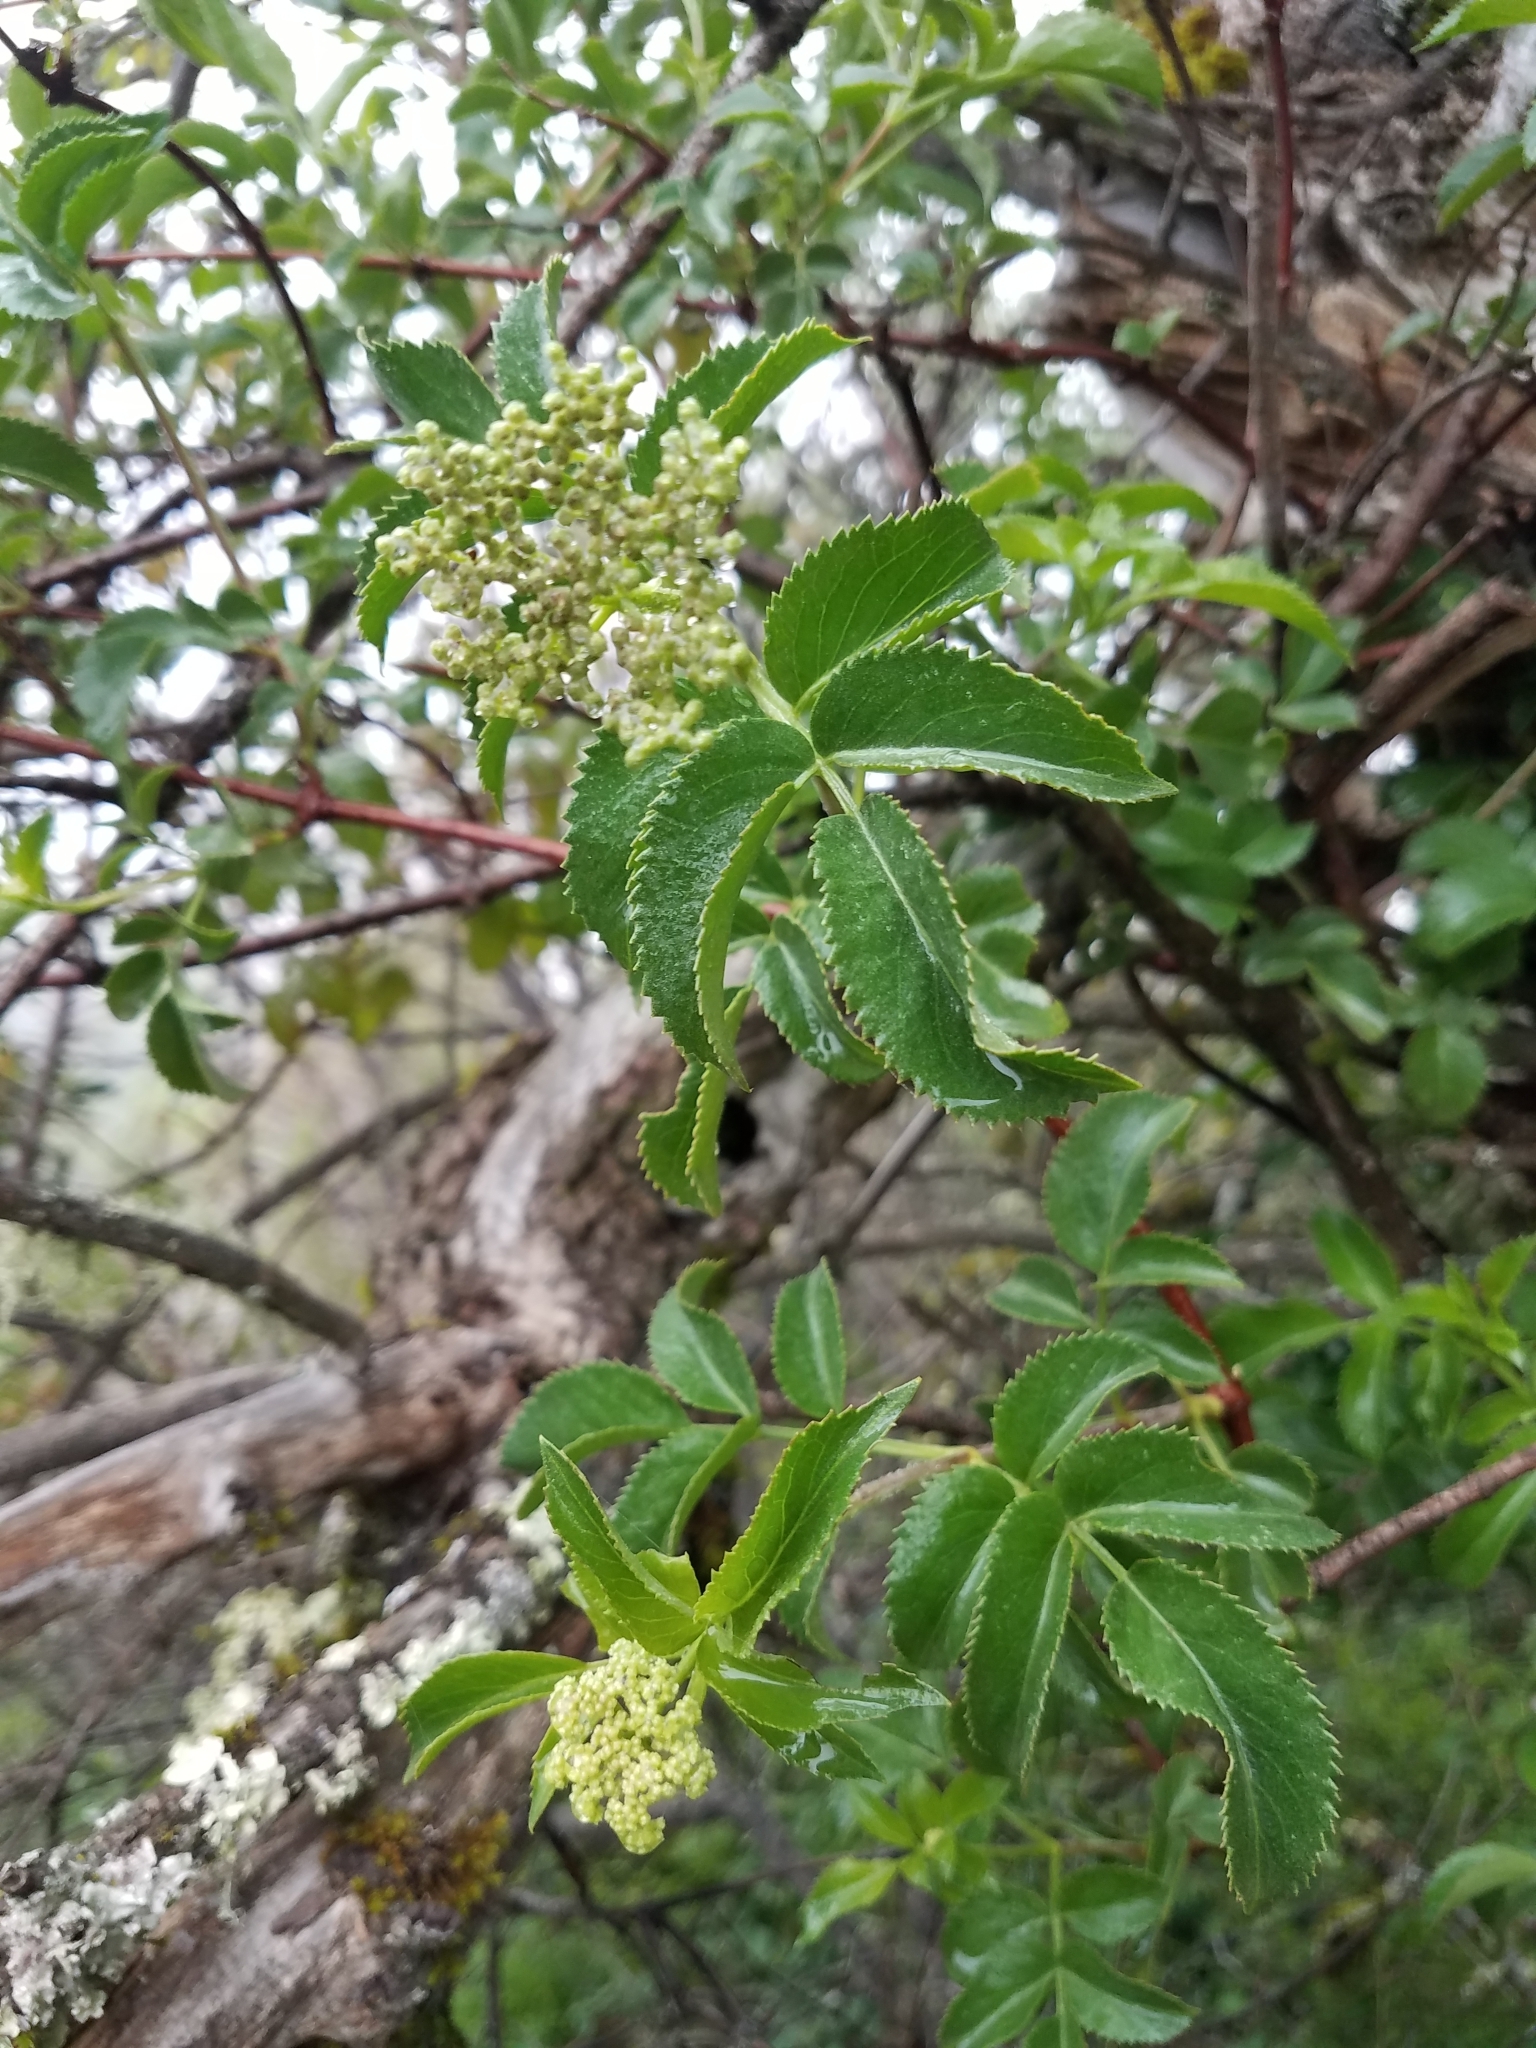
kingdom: Plantae
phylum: Tracheophyta
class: Magnoliopsida
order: Dipsacales
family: Viburnaceae
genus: Sambucus
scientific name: Sambucus cerulea
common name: Blue elder
